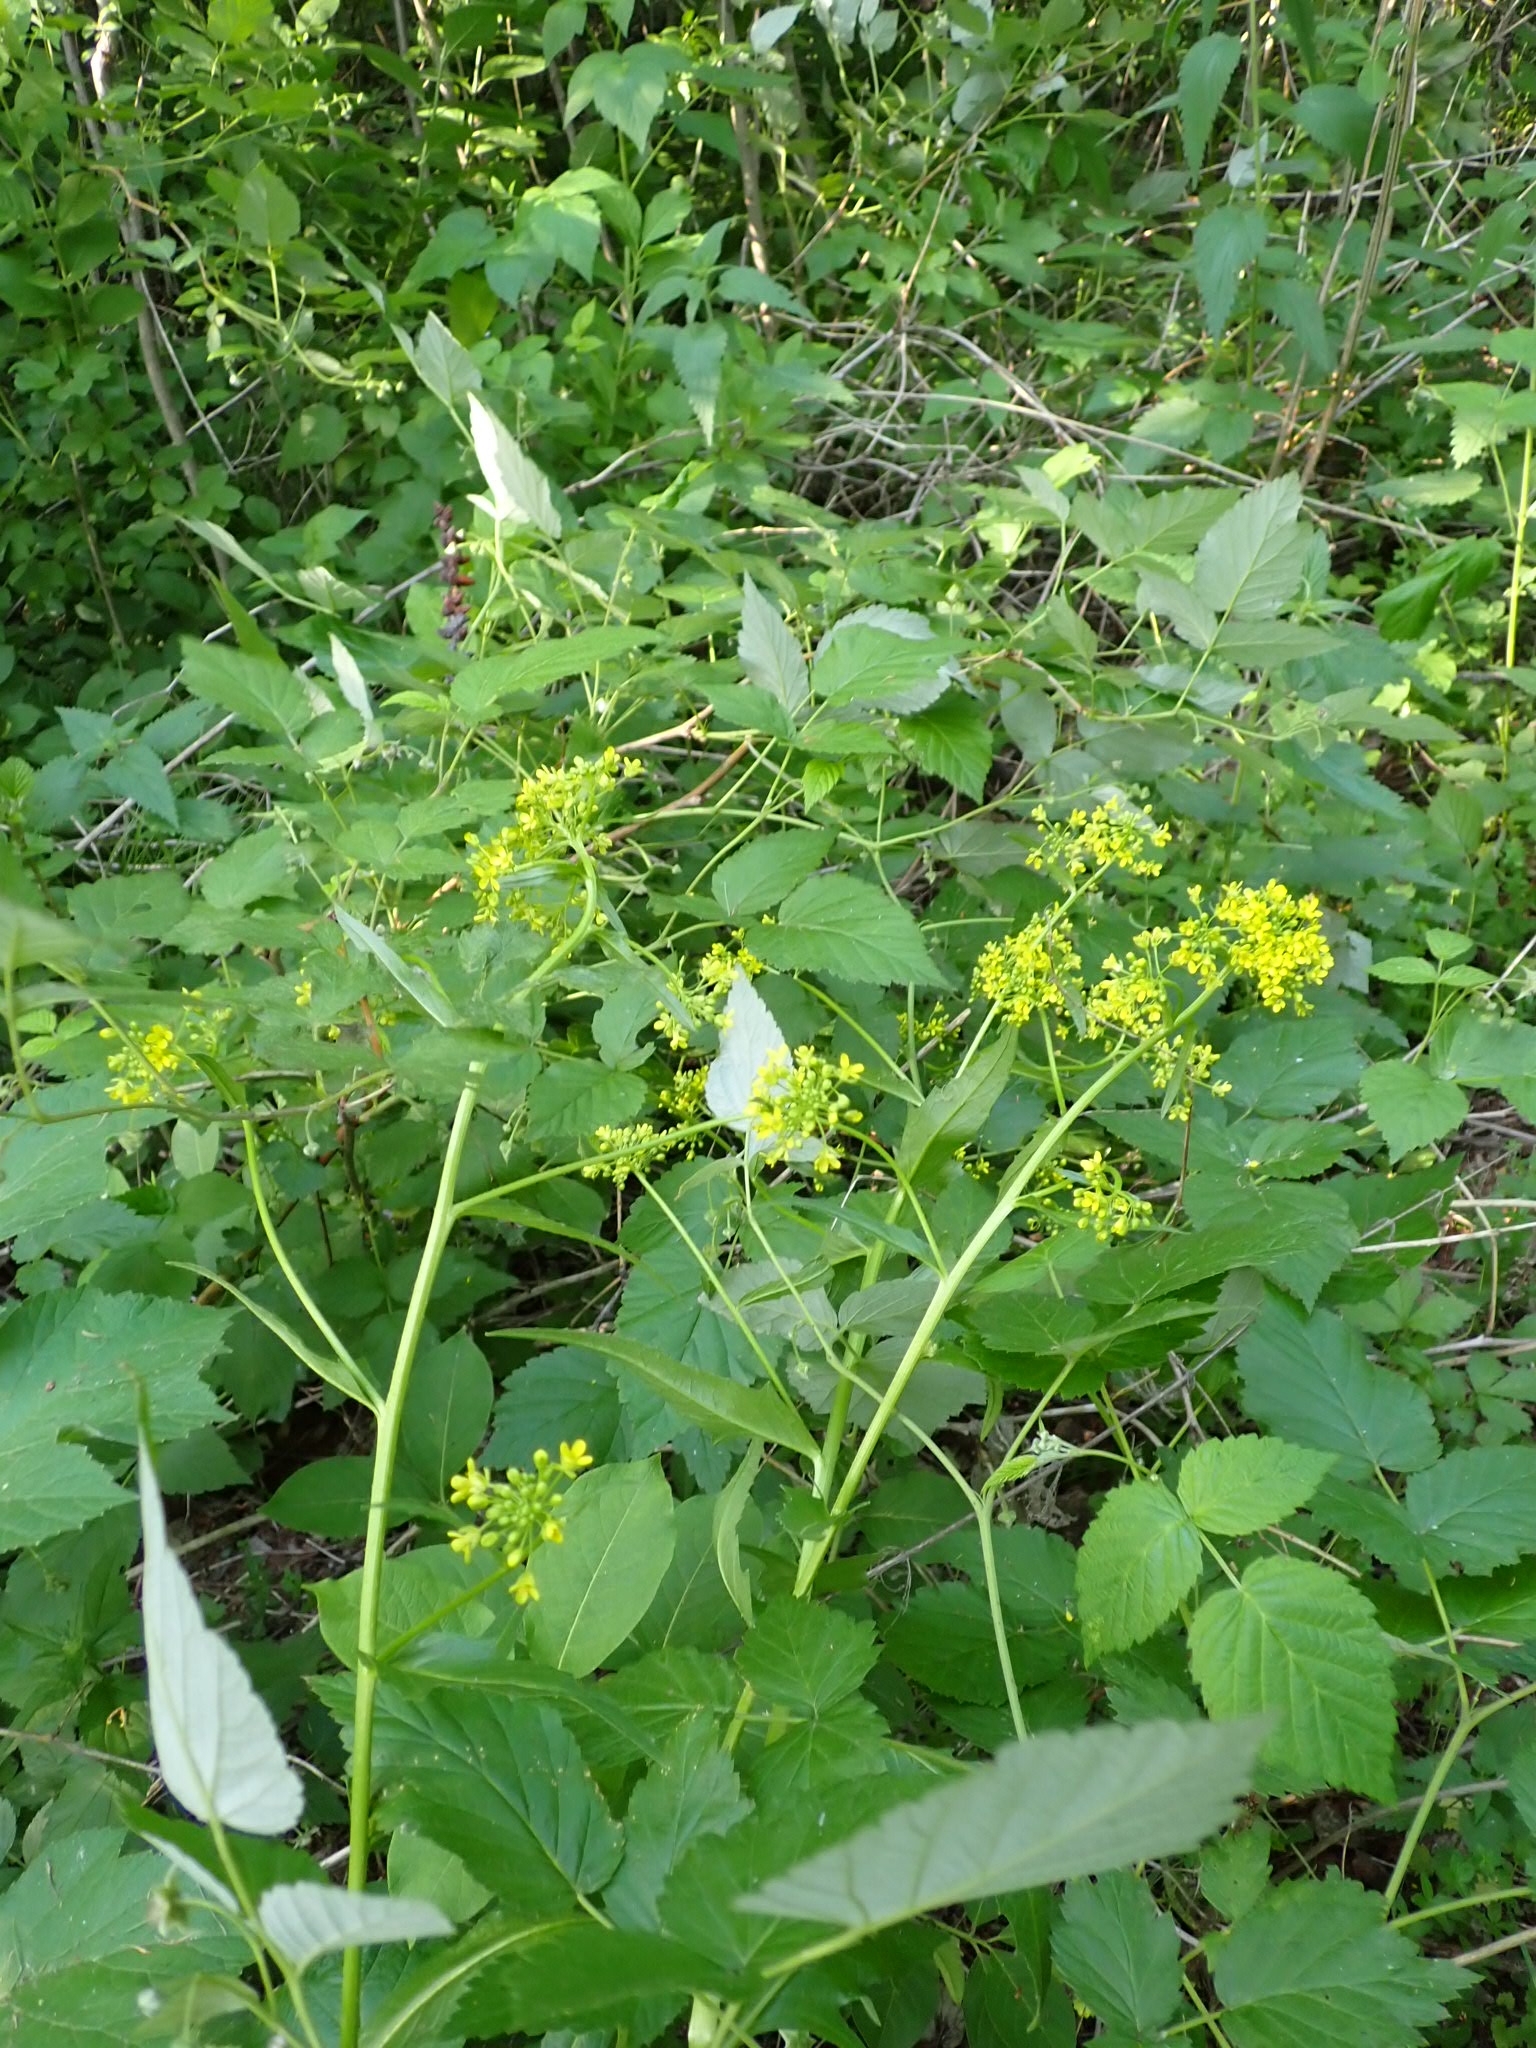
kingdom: Plantae
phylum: Tracheophyta
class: Magnoliopsida
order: Brassicales
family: Brassicaceae
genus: Bunias
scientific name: Bunias orientalis
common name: Warty-cabbage
